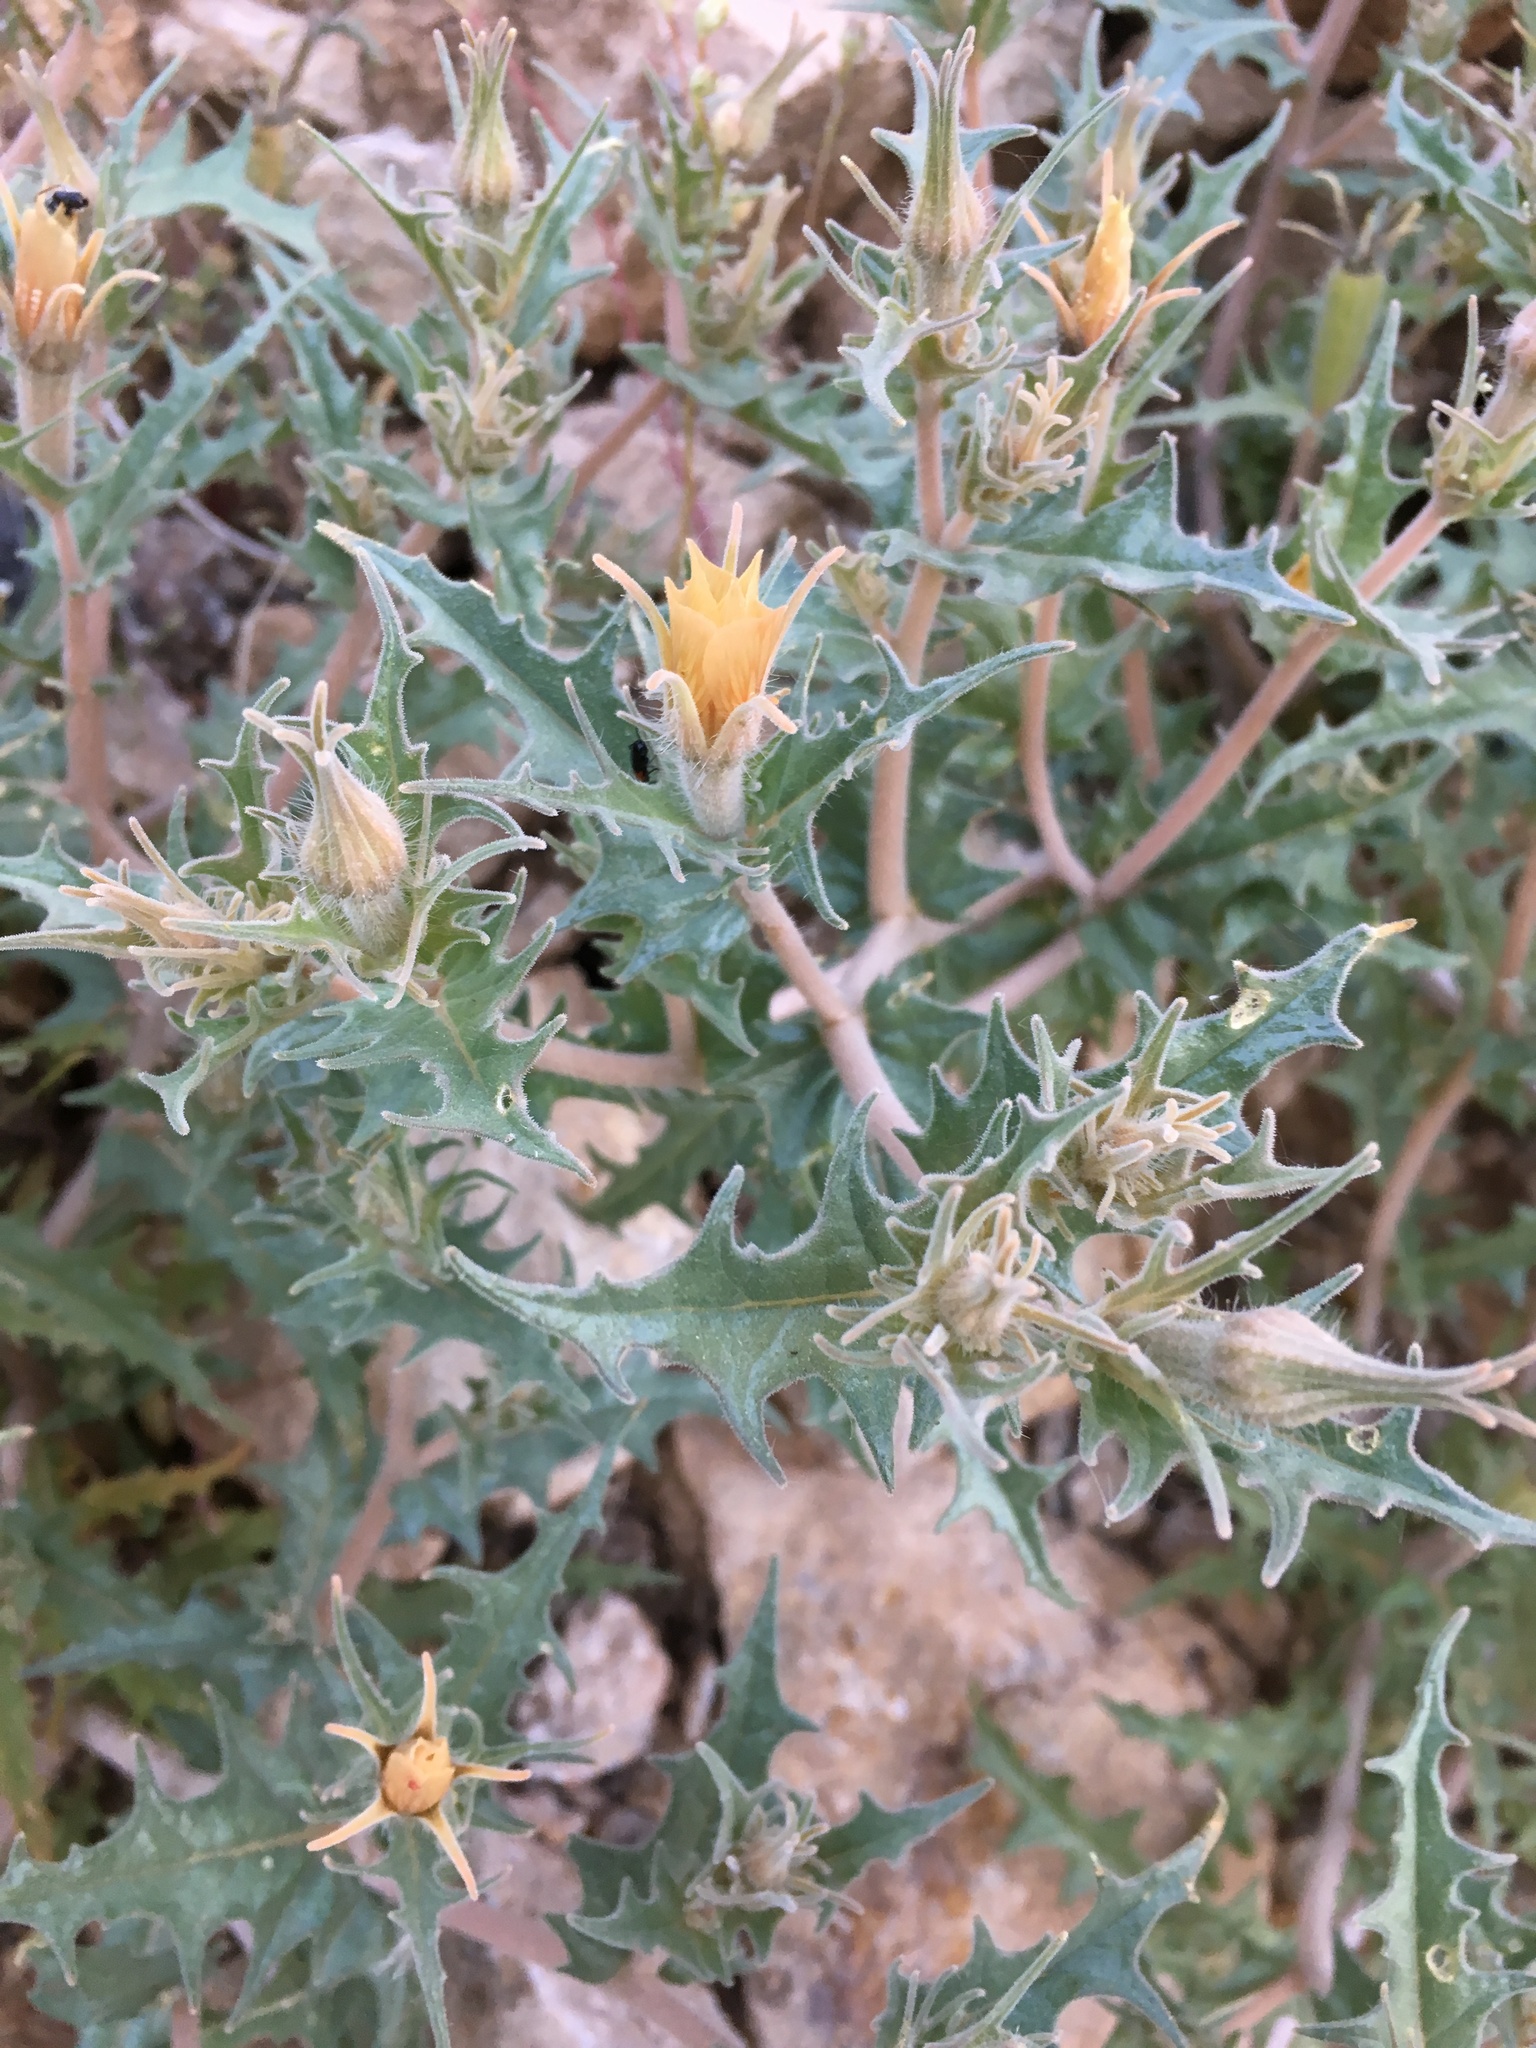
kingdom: Plantae
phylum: Tracheophyta
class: Magnoliopsida
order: Cornales
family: Loasaceae
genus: Mentzelia
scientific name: Mentzelia hirsutissima
